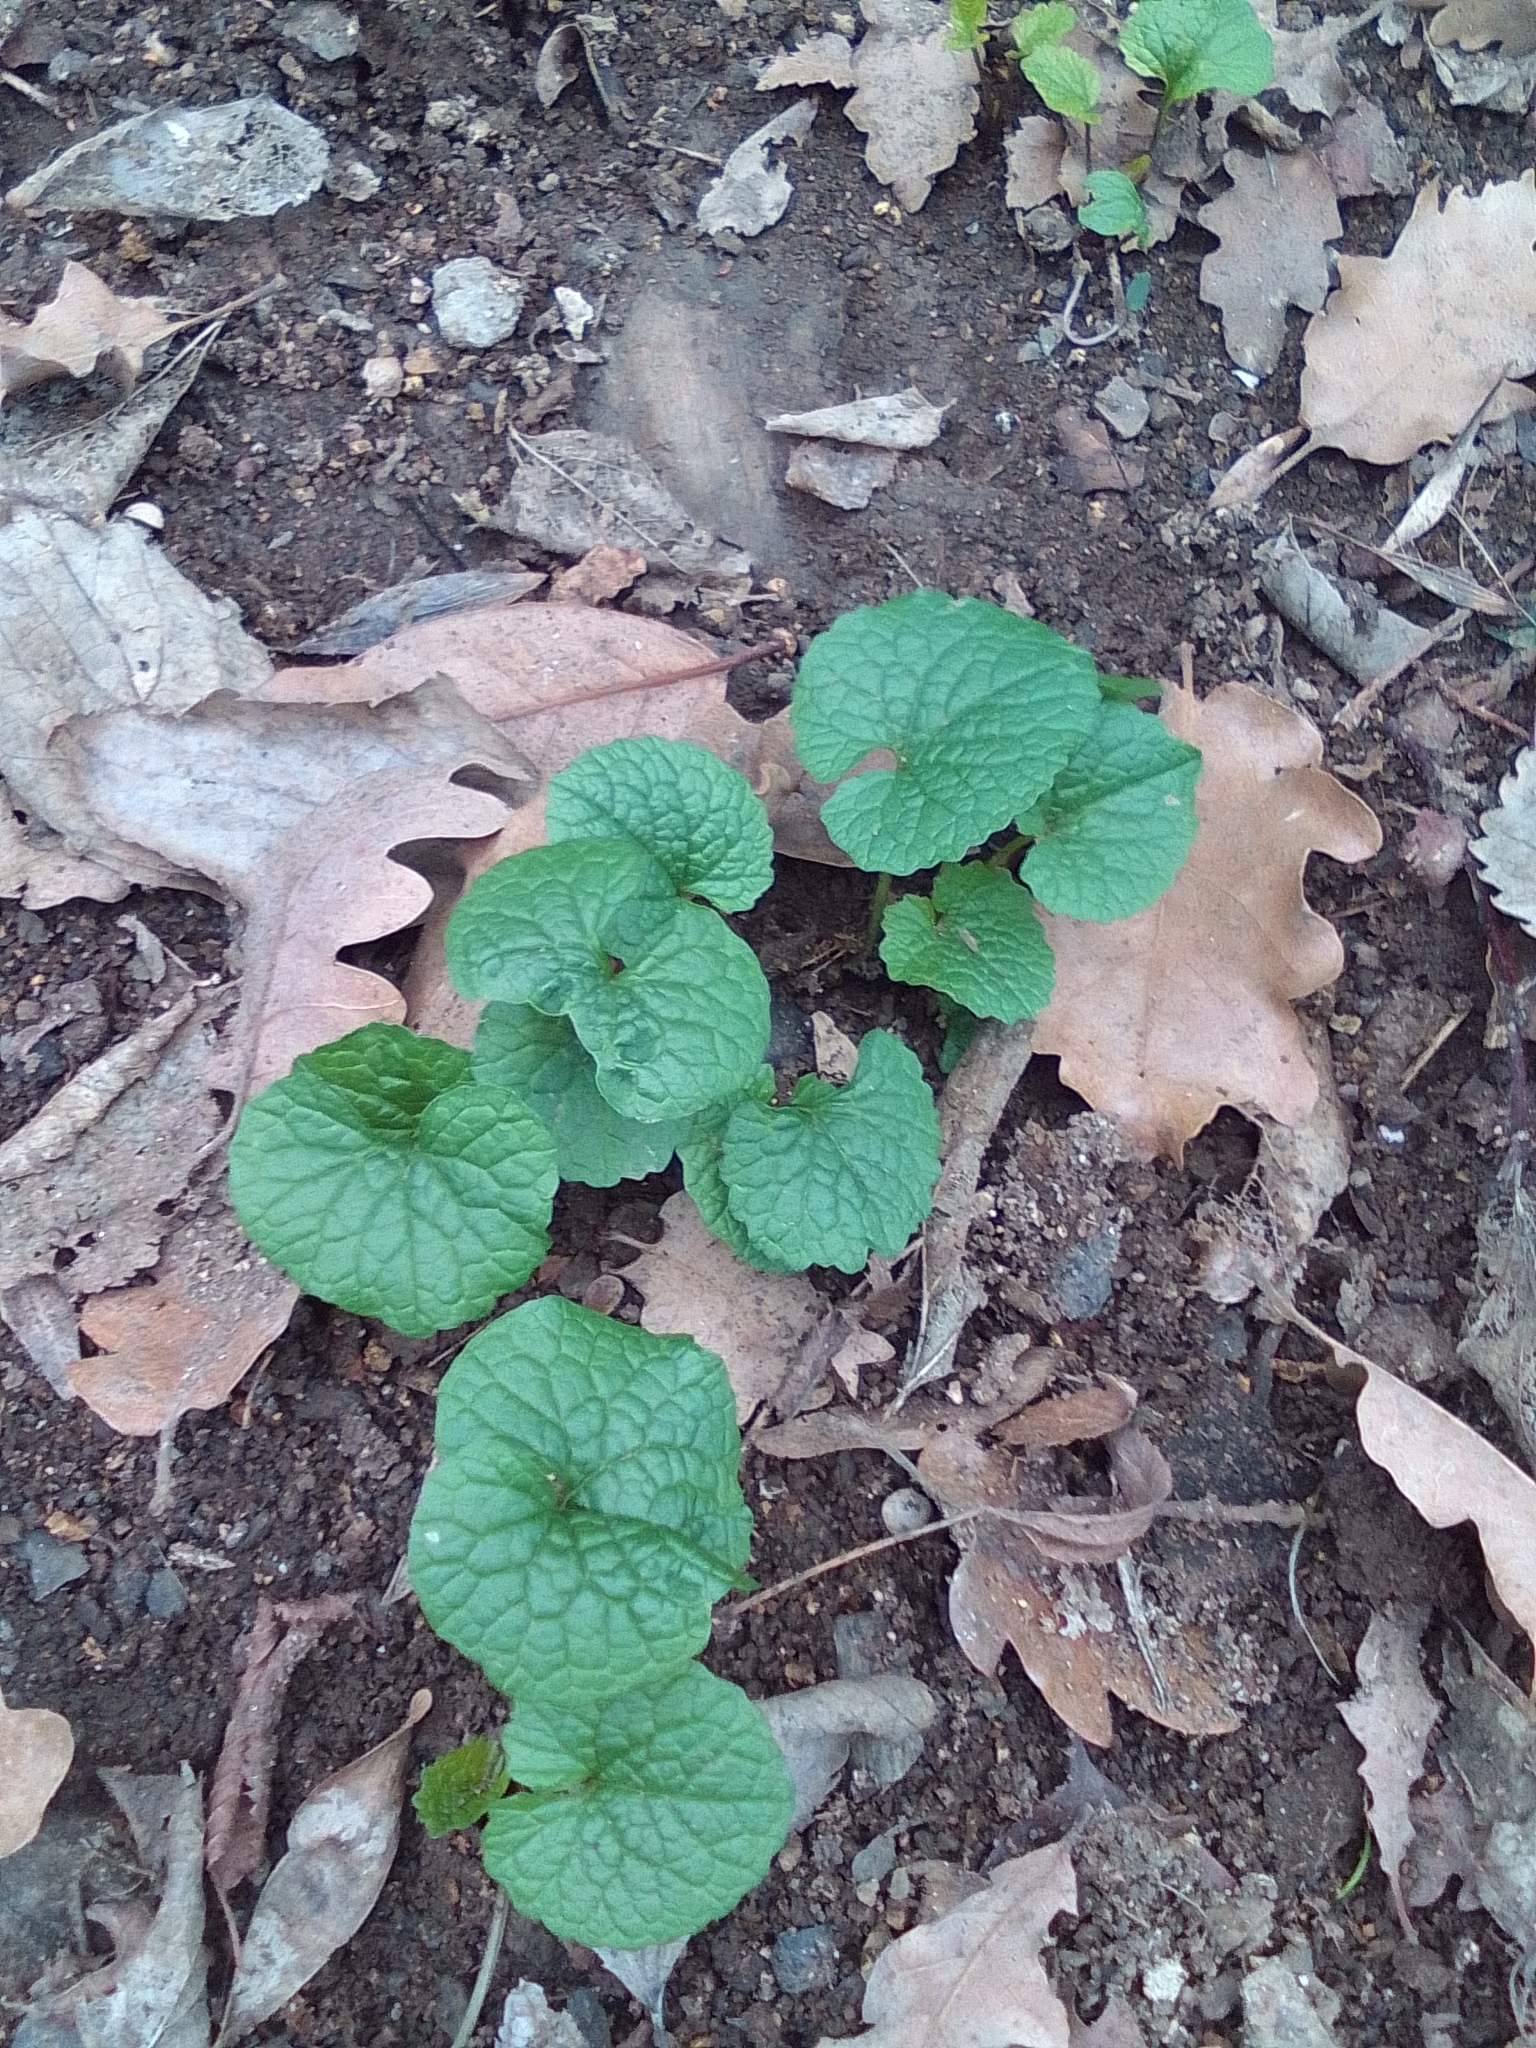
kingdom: Plantae
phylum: Tracheophyta
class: Magnoliopsida
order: Brassicales
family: Brassicaceae
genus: Alliaria
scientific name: Alliaria petiolata
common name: Garlic mustard
